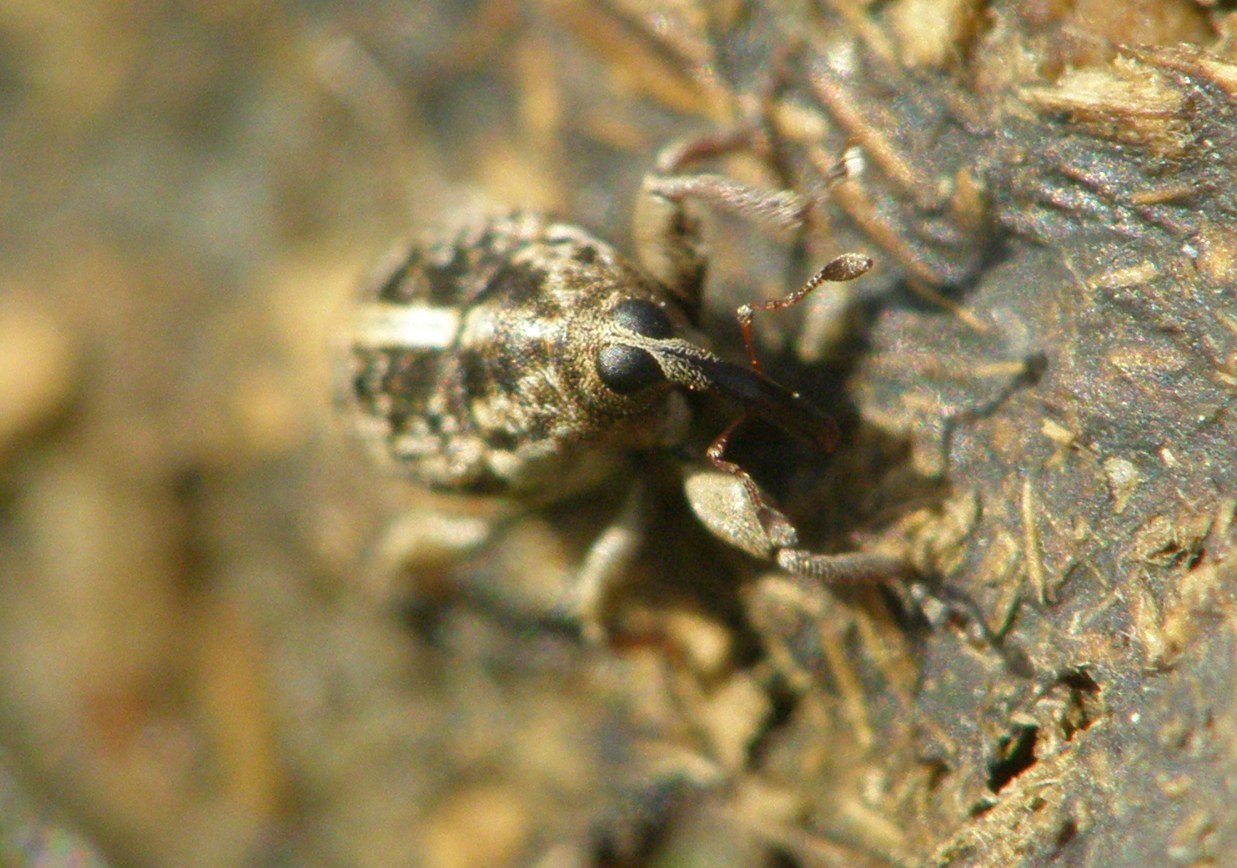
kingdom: Animalia
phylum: Arthropoda
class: Insecta
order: Coleoptera
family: Curculionidae
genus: Poecilma
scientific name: Poecilma
